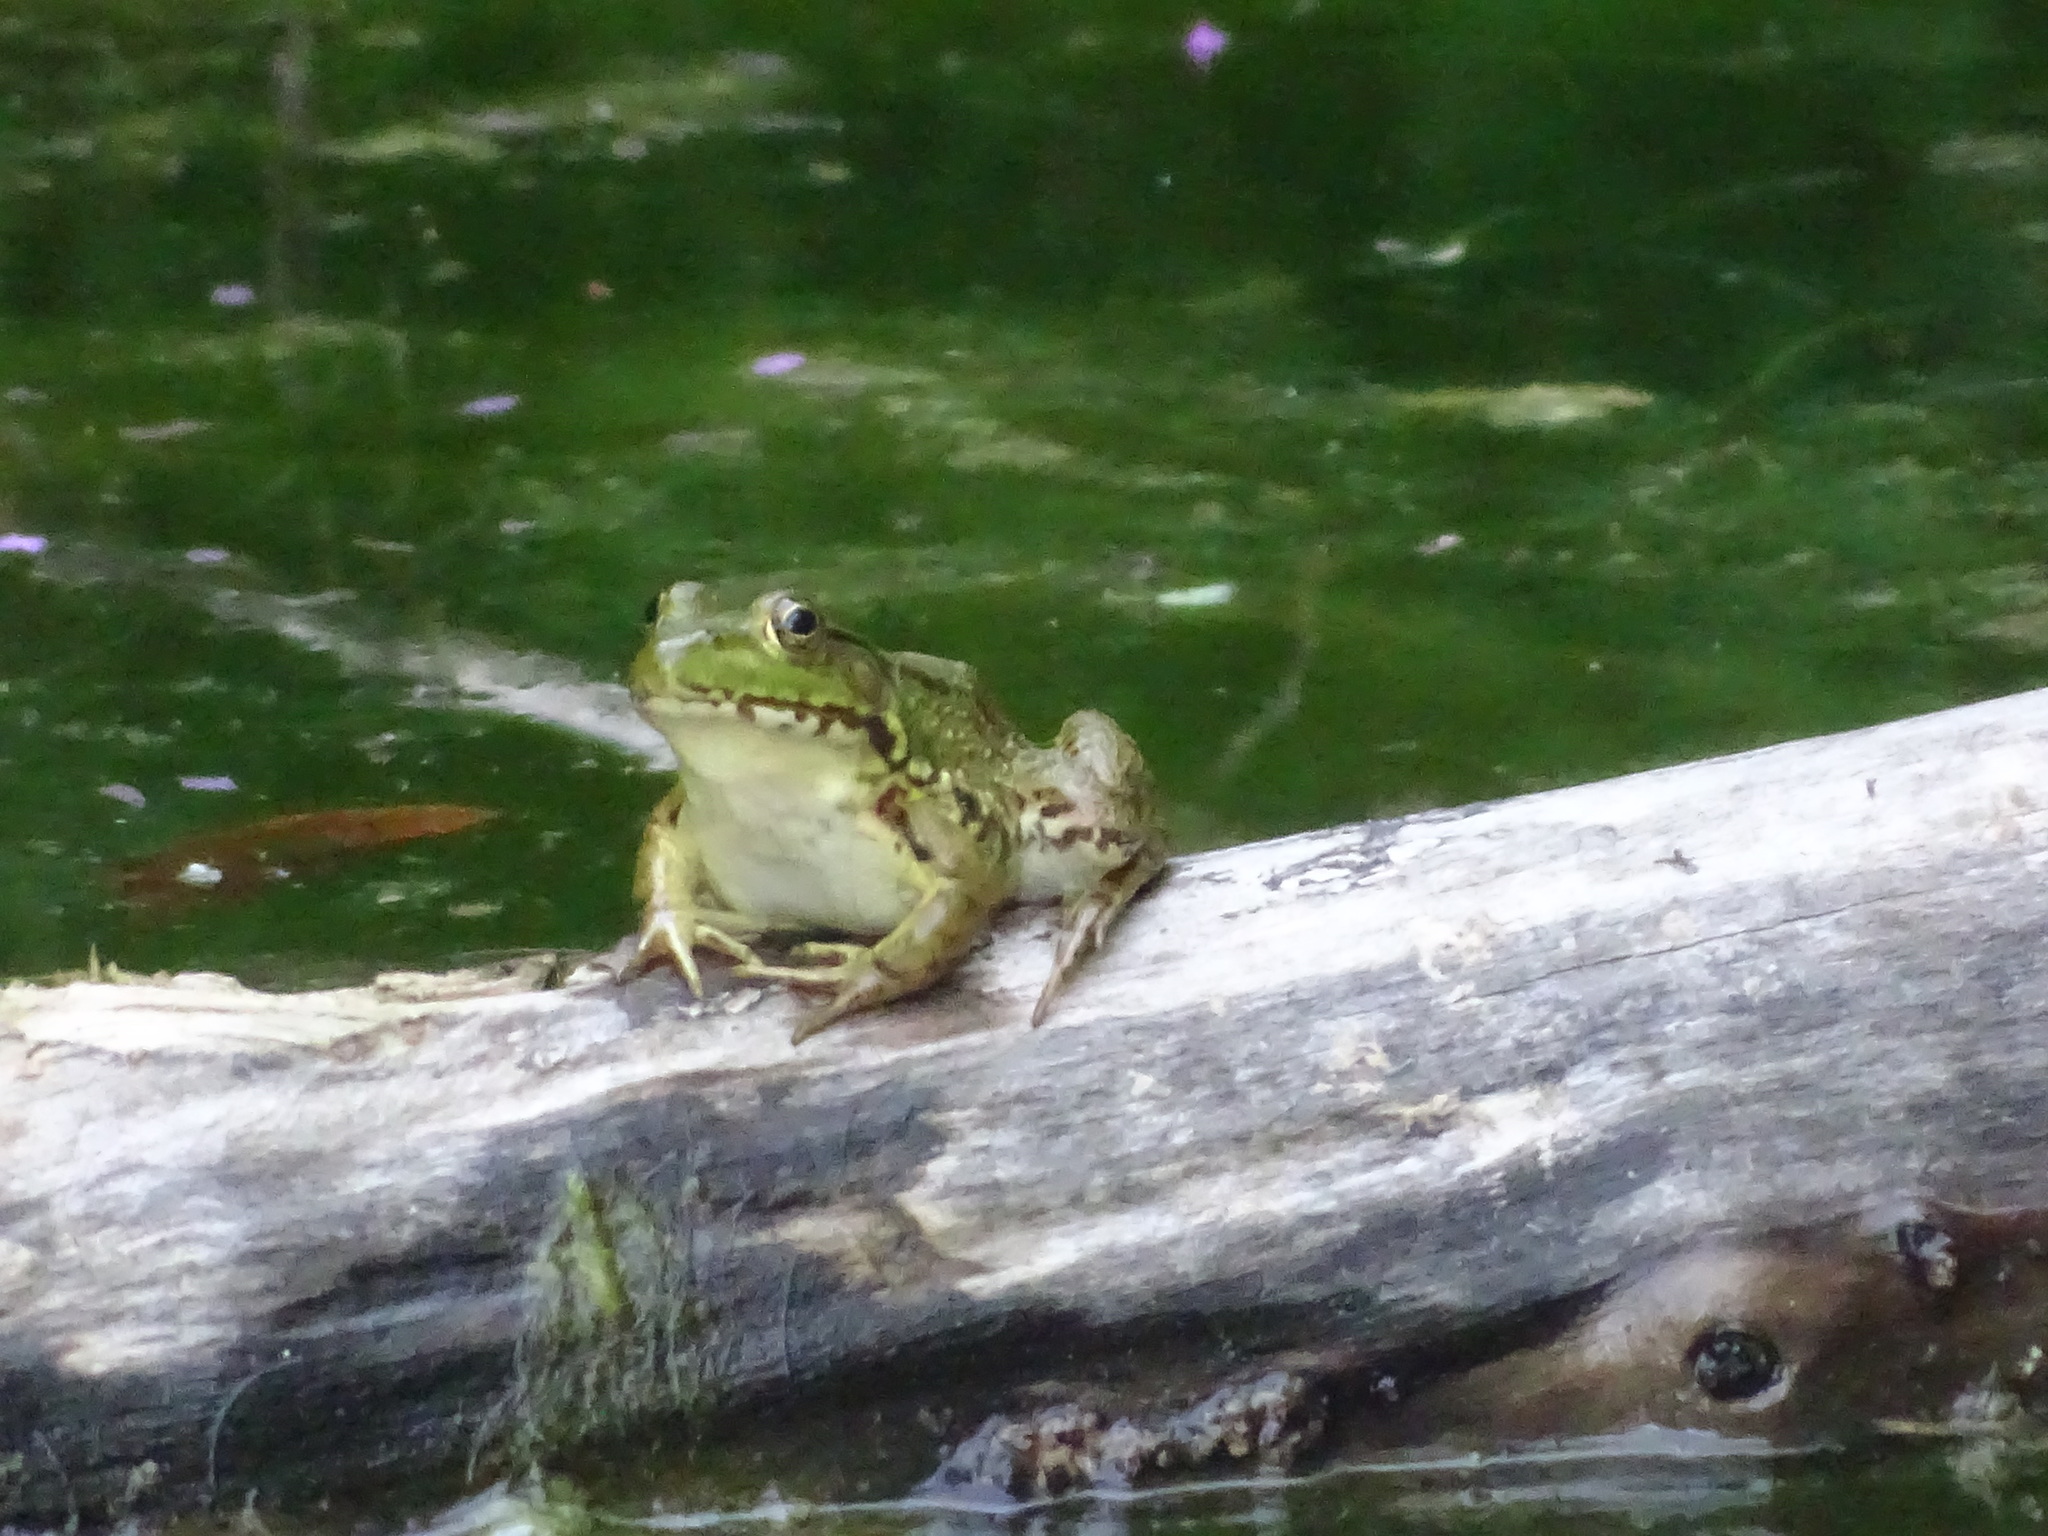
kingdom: Animalia
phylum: Chordata
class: Amphibia
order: Anura
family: Ranidae
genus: Lithobates
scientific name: Lithobates clamitans
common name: Green frog
